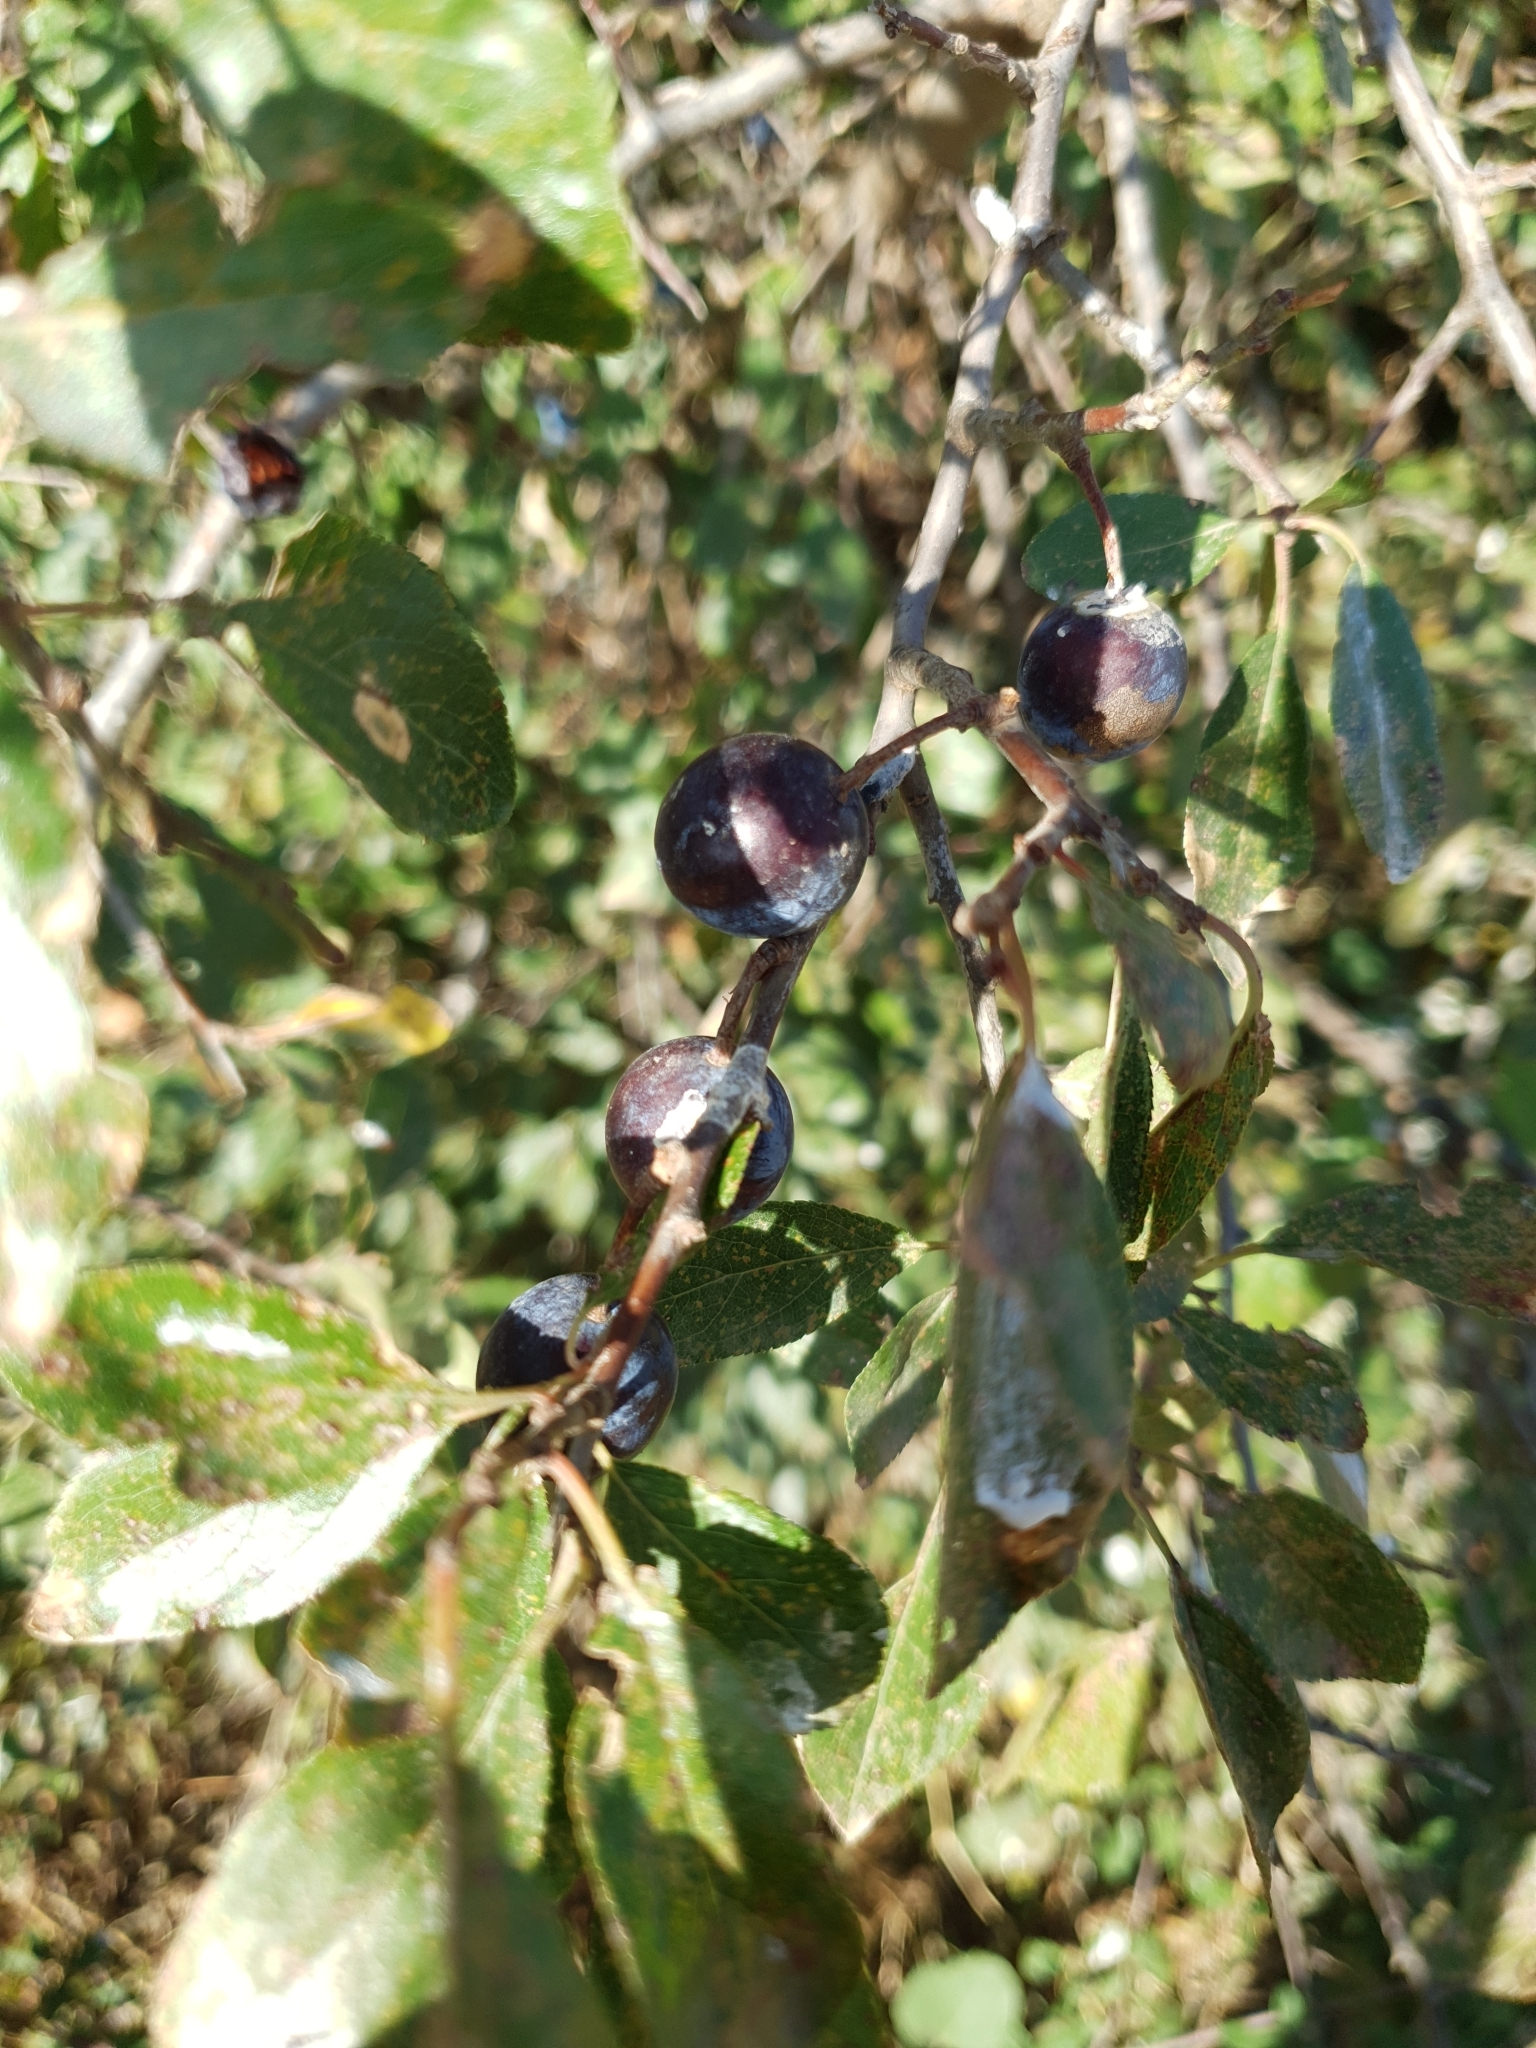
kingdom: Plantae
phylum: Tracheophyta
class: Magnoliopsida
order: Rosales
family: Rosaceae
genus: Prunus
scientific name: Prunus spinosa
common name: Blackthorn
